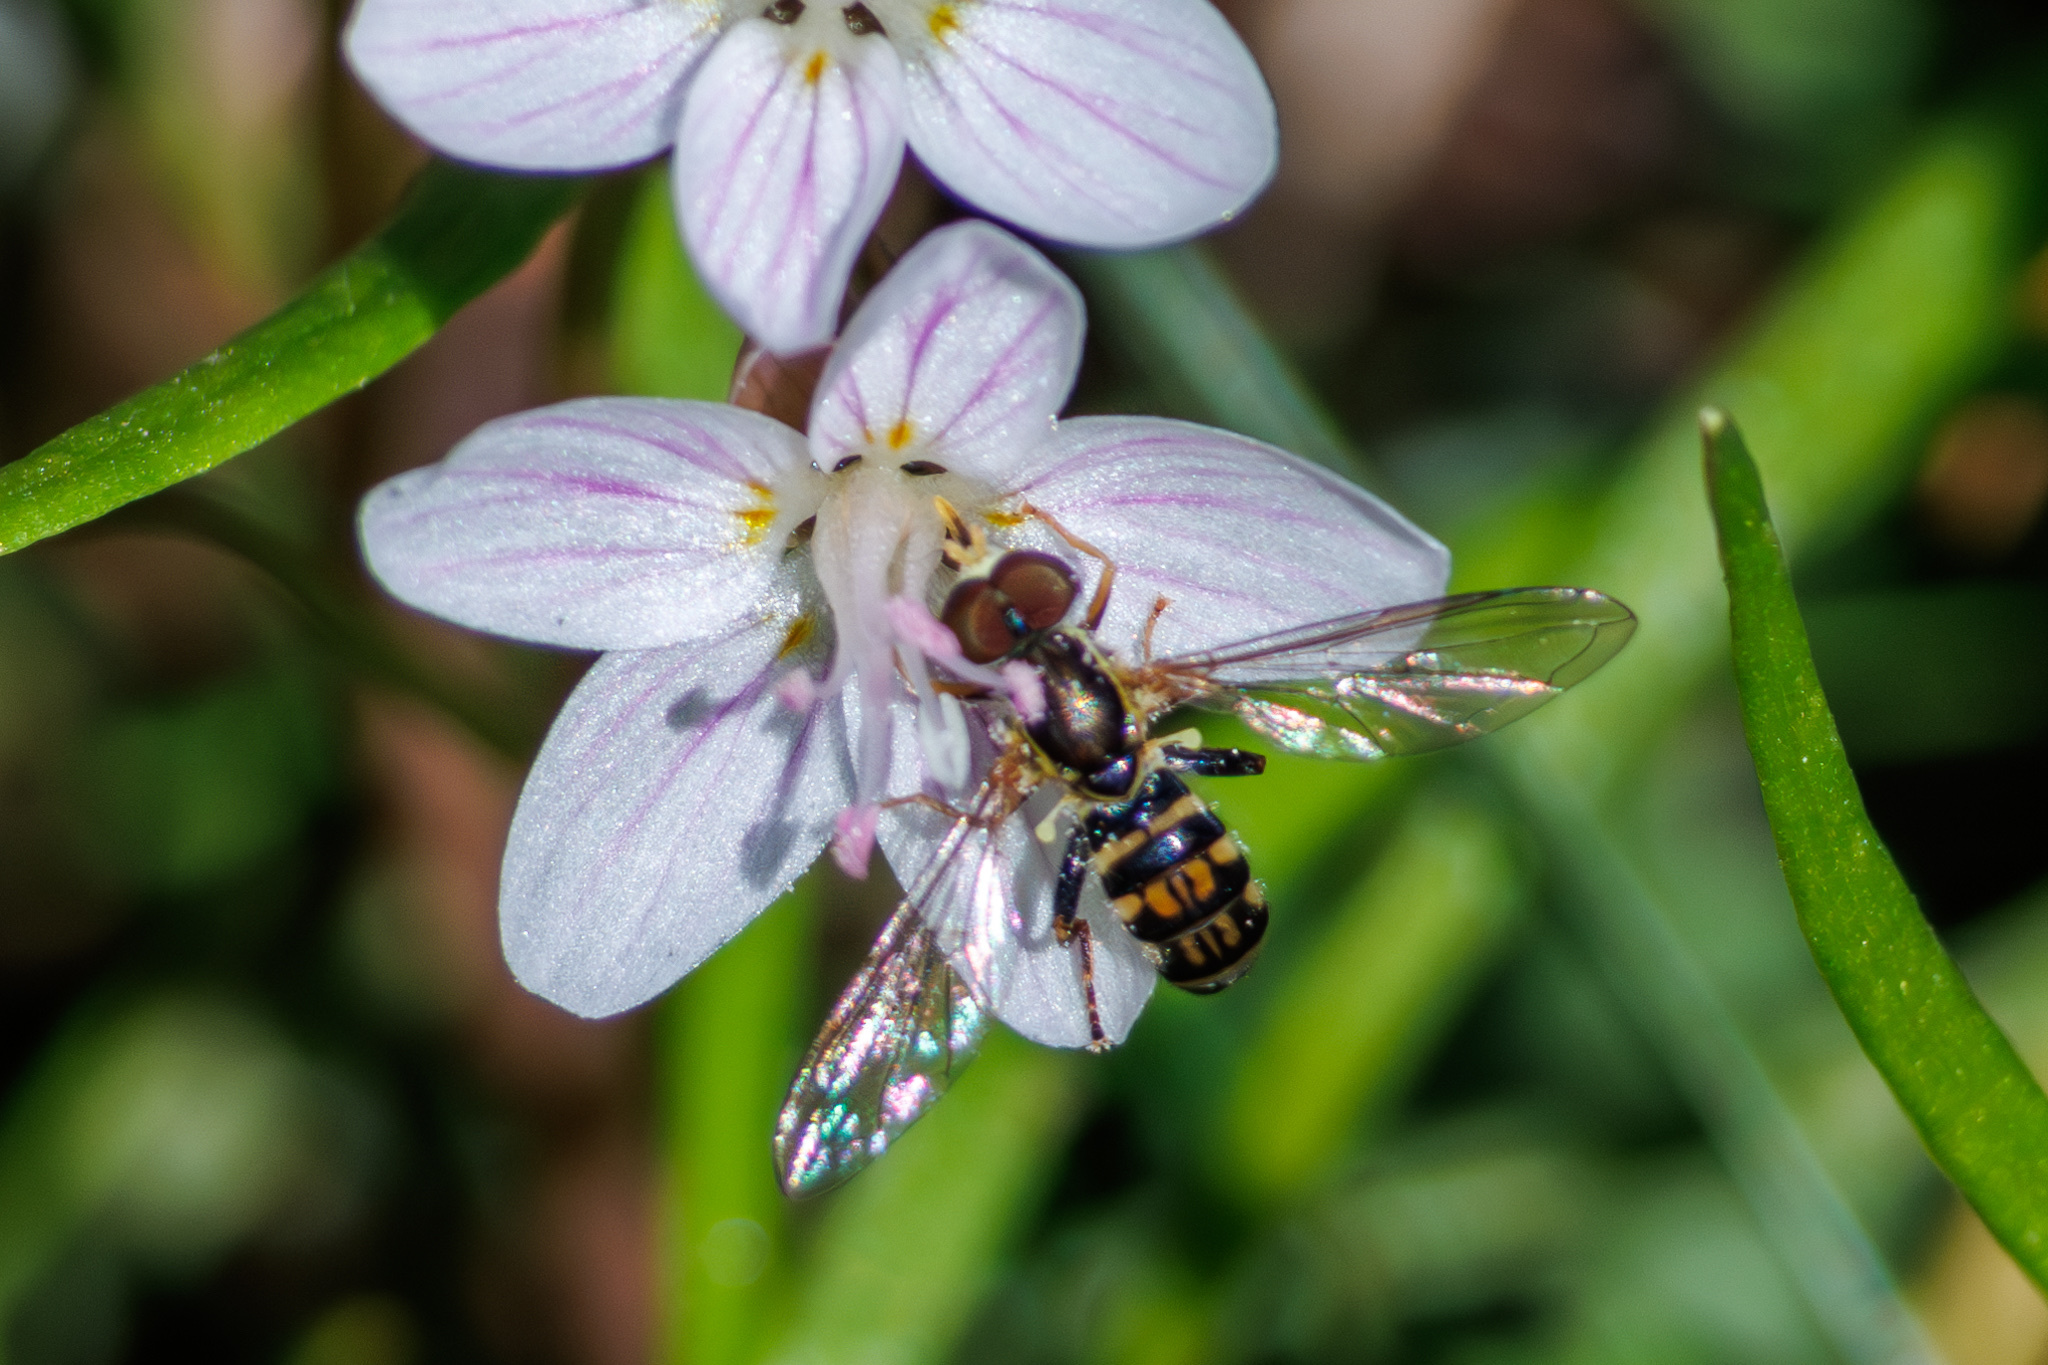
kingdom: Animalia
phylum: Arthropoda
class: Insecta
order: Diptera
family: Syrphidae
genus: Toxomerus
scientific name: Toxomerus geminatus
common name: Eastern calligrapher
